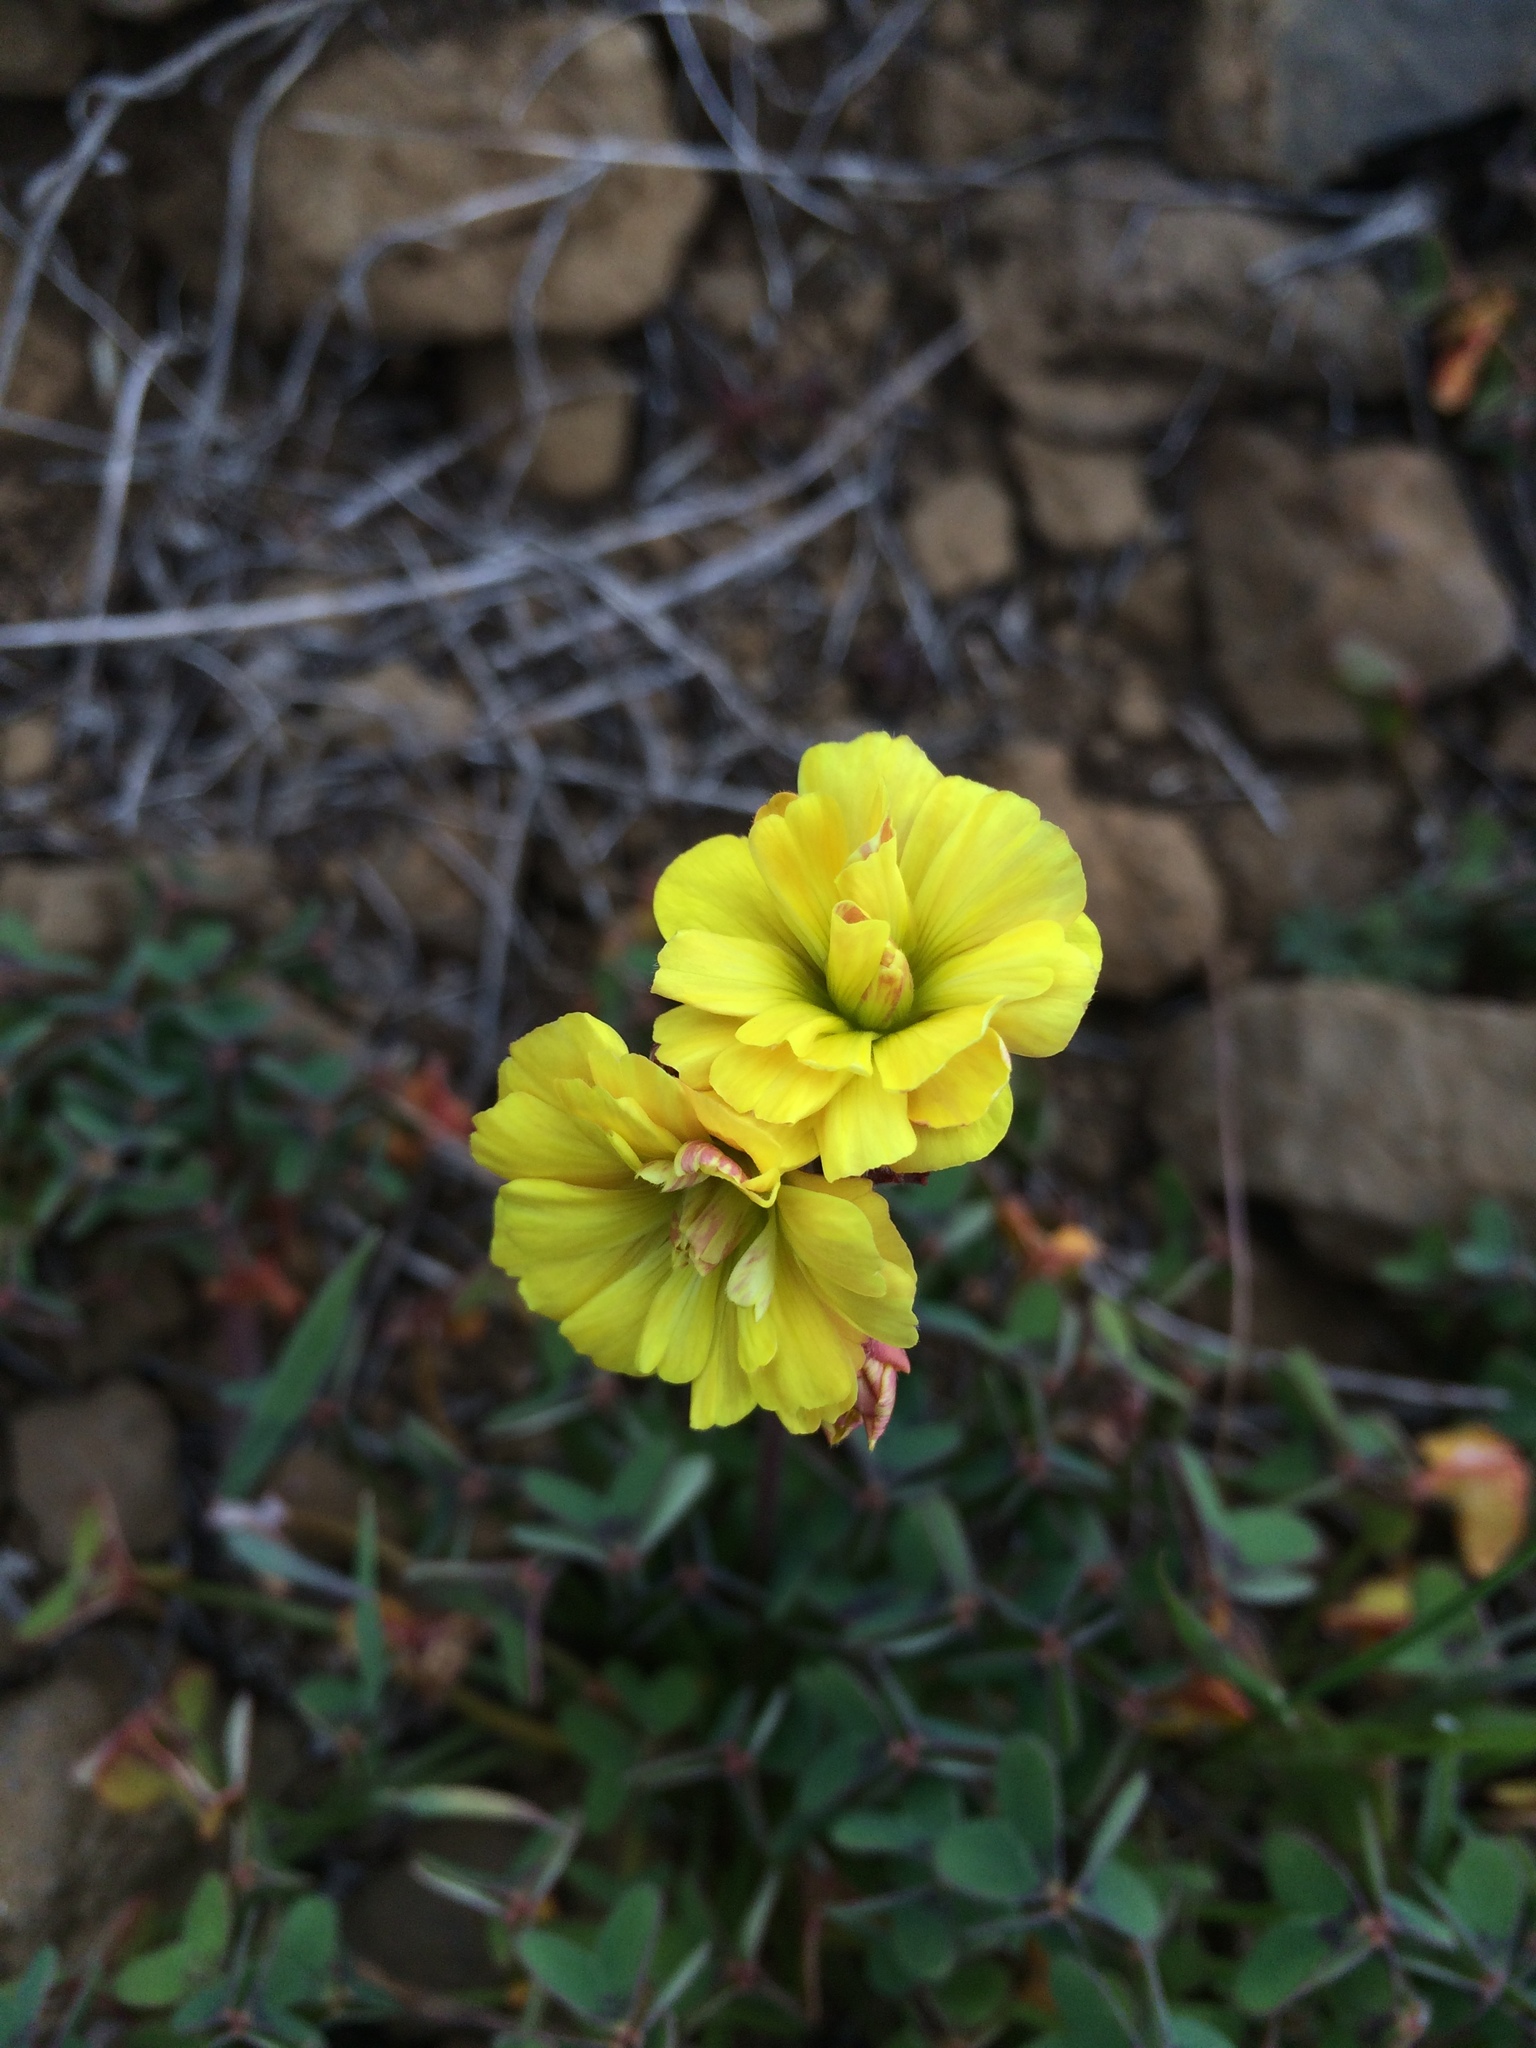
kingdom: Plantae
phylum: Tracheophyta
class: Magnoliopsida
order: Oxalidales
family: Oxalidaceae
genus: Oxalis
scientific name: Oxalis pes-caprae
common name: Bermuda-buttercup
